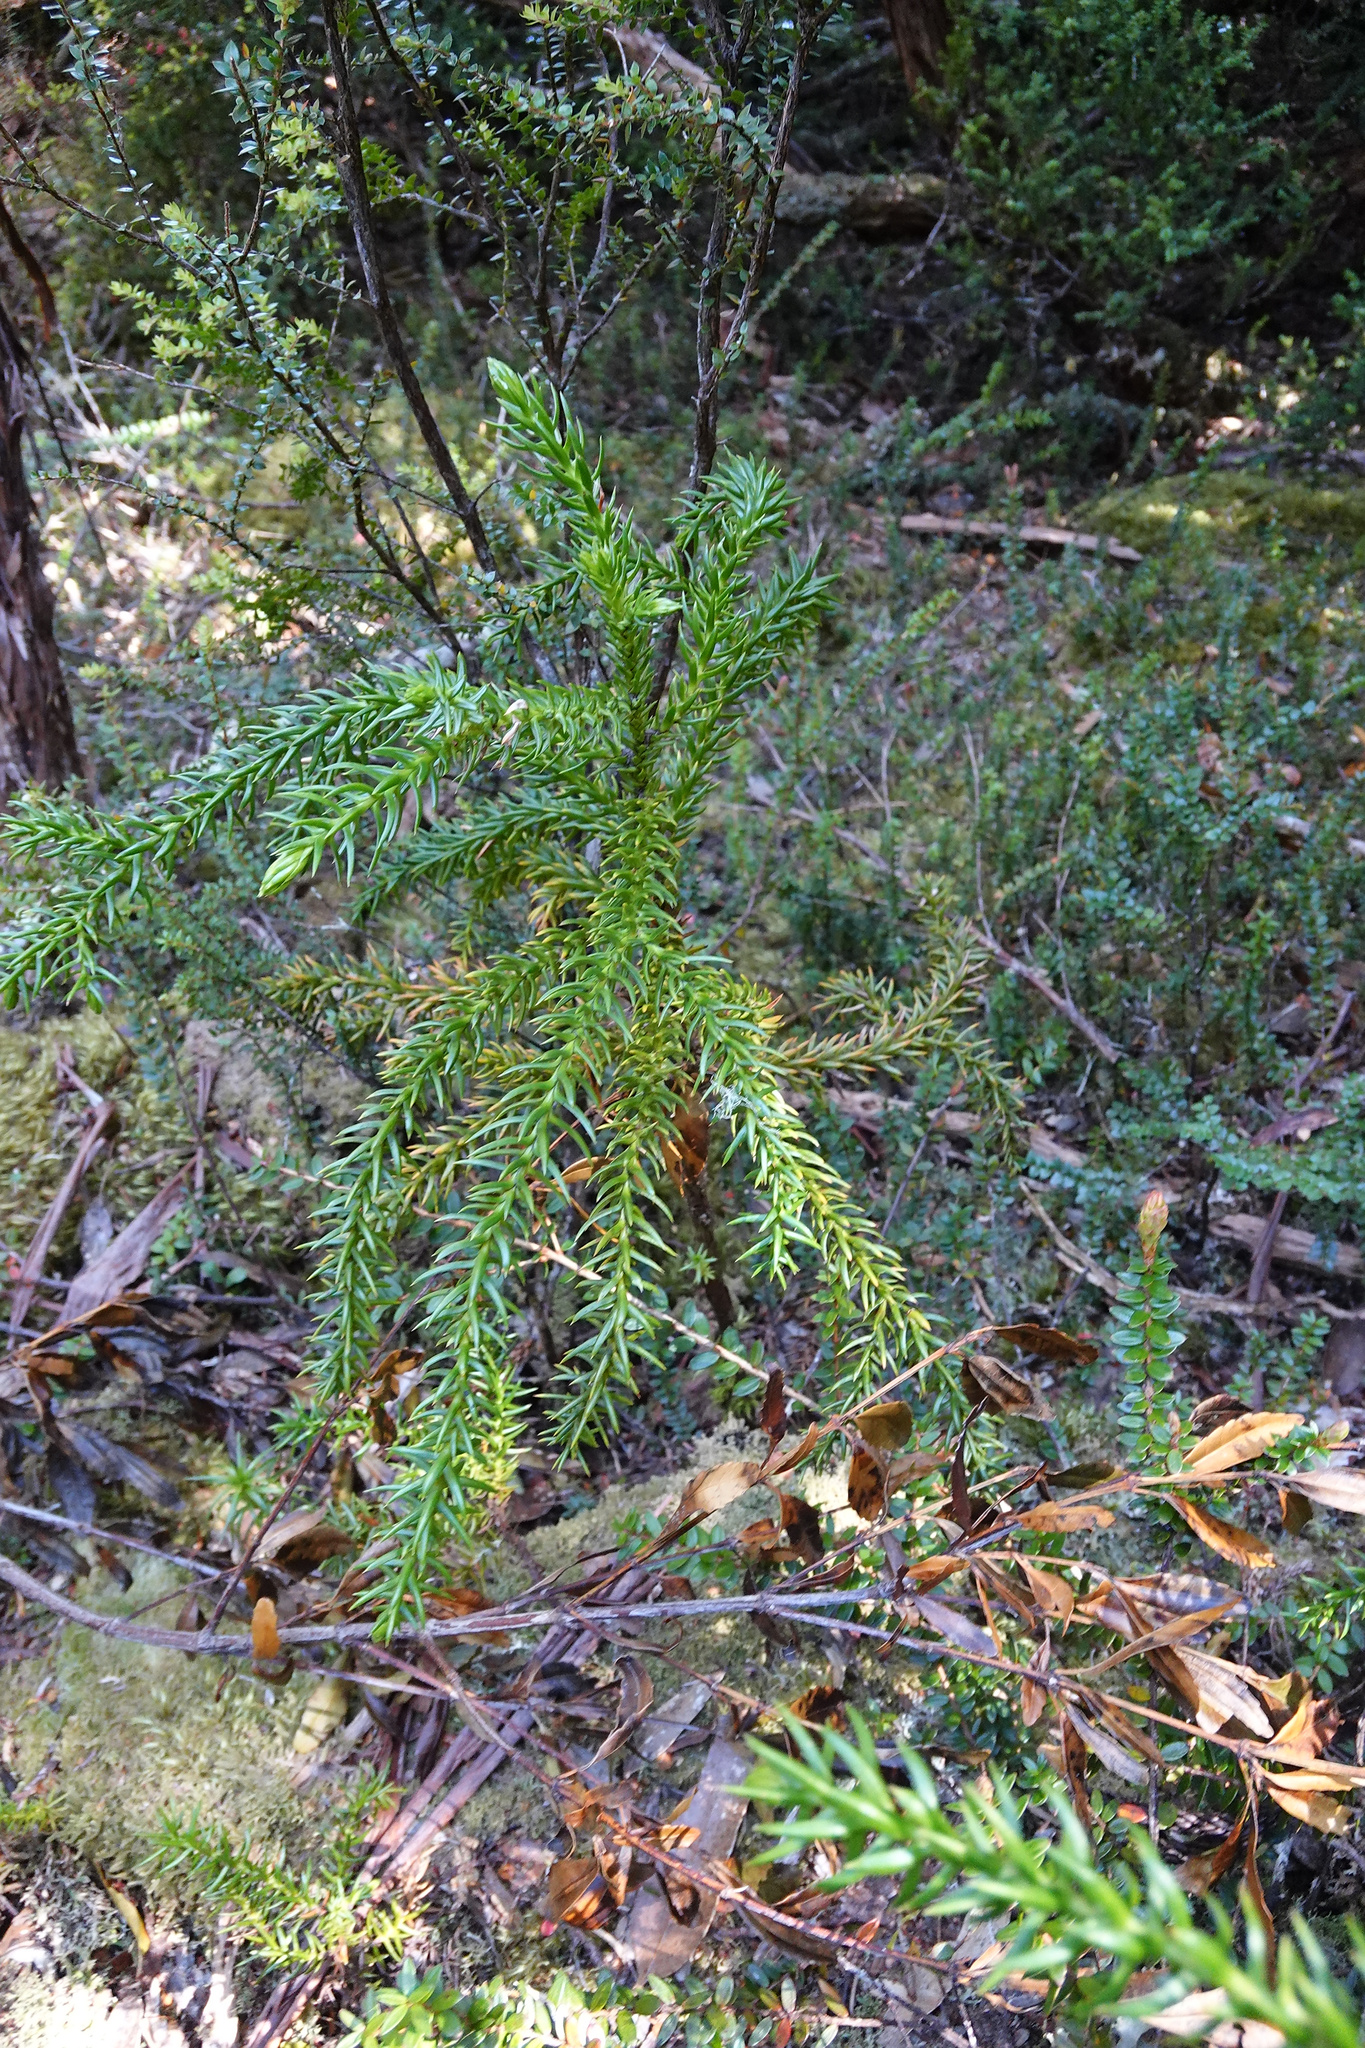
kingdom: Plantae
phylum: Tracheophyta
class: Pinopsida
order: Pinales
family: Cupressaceae
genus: Athrotaxis
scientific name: Athrotaxis selaginoides
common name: King william pine
